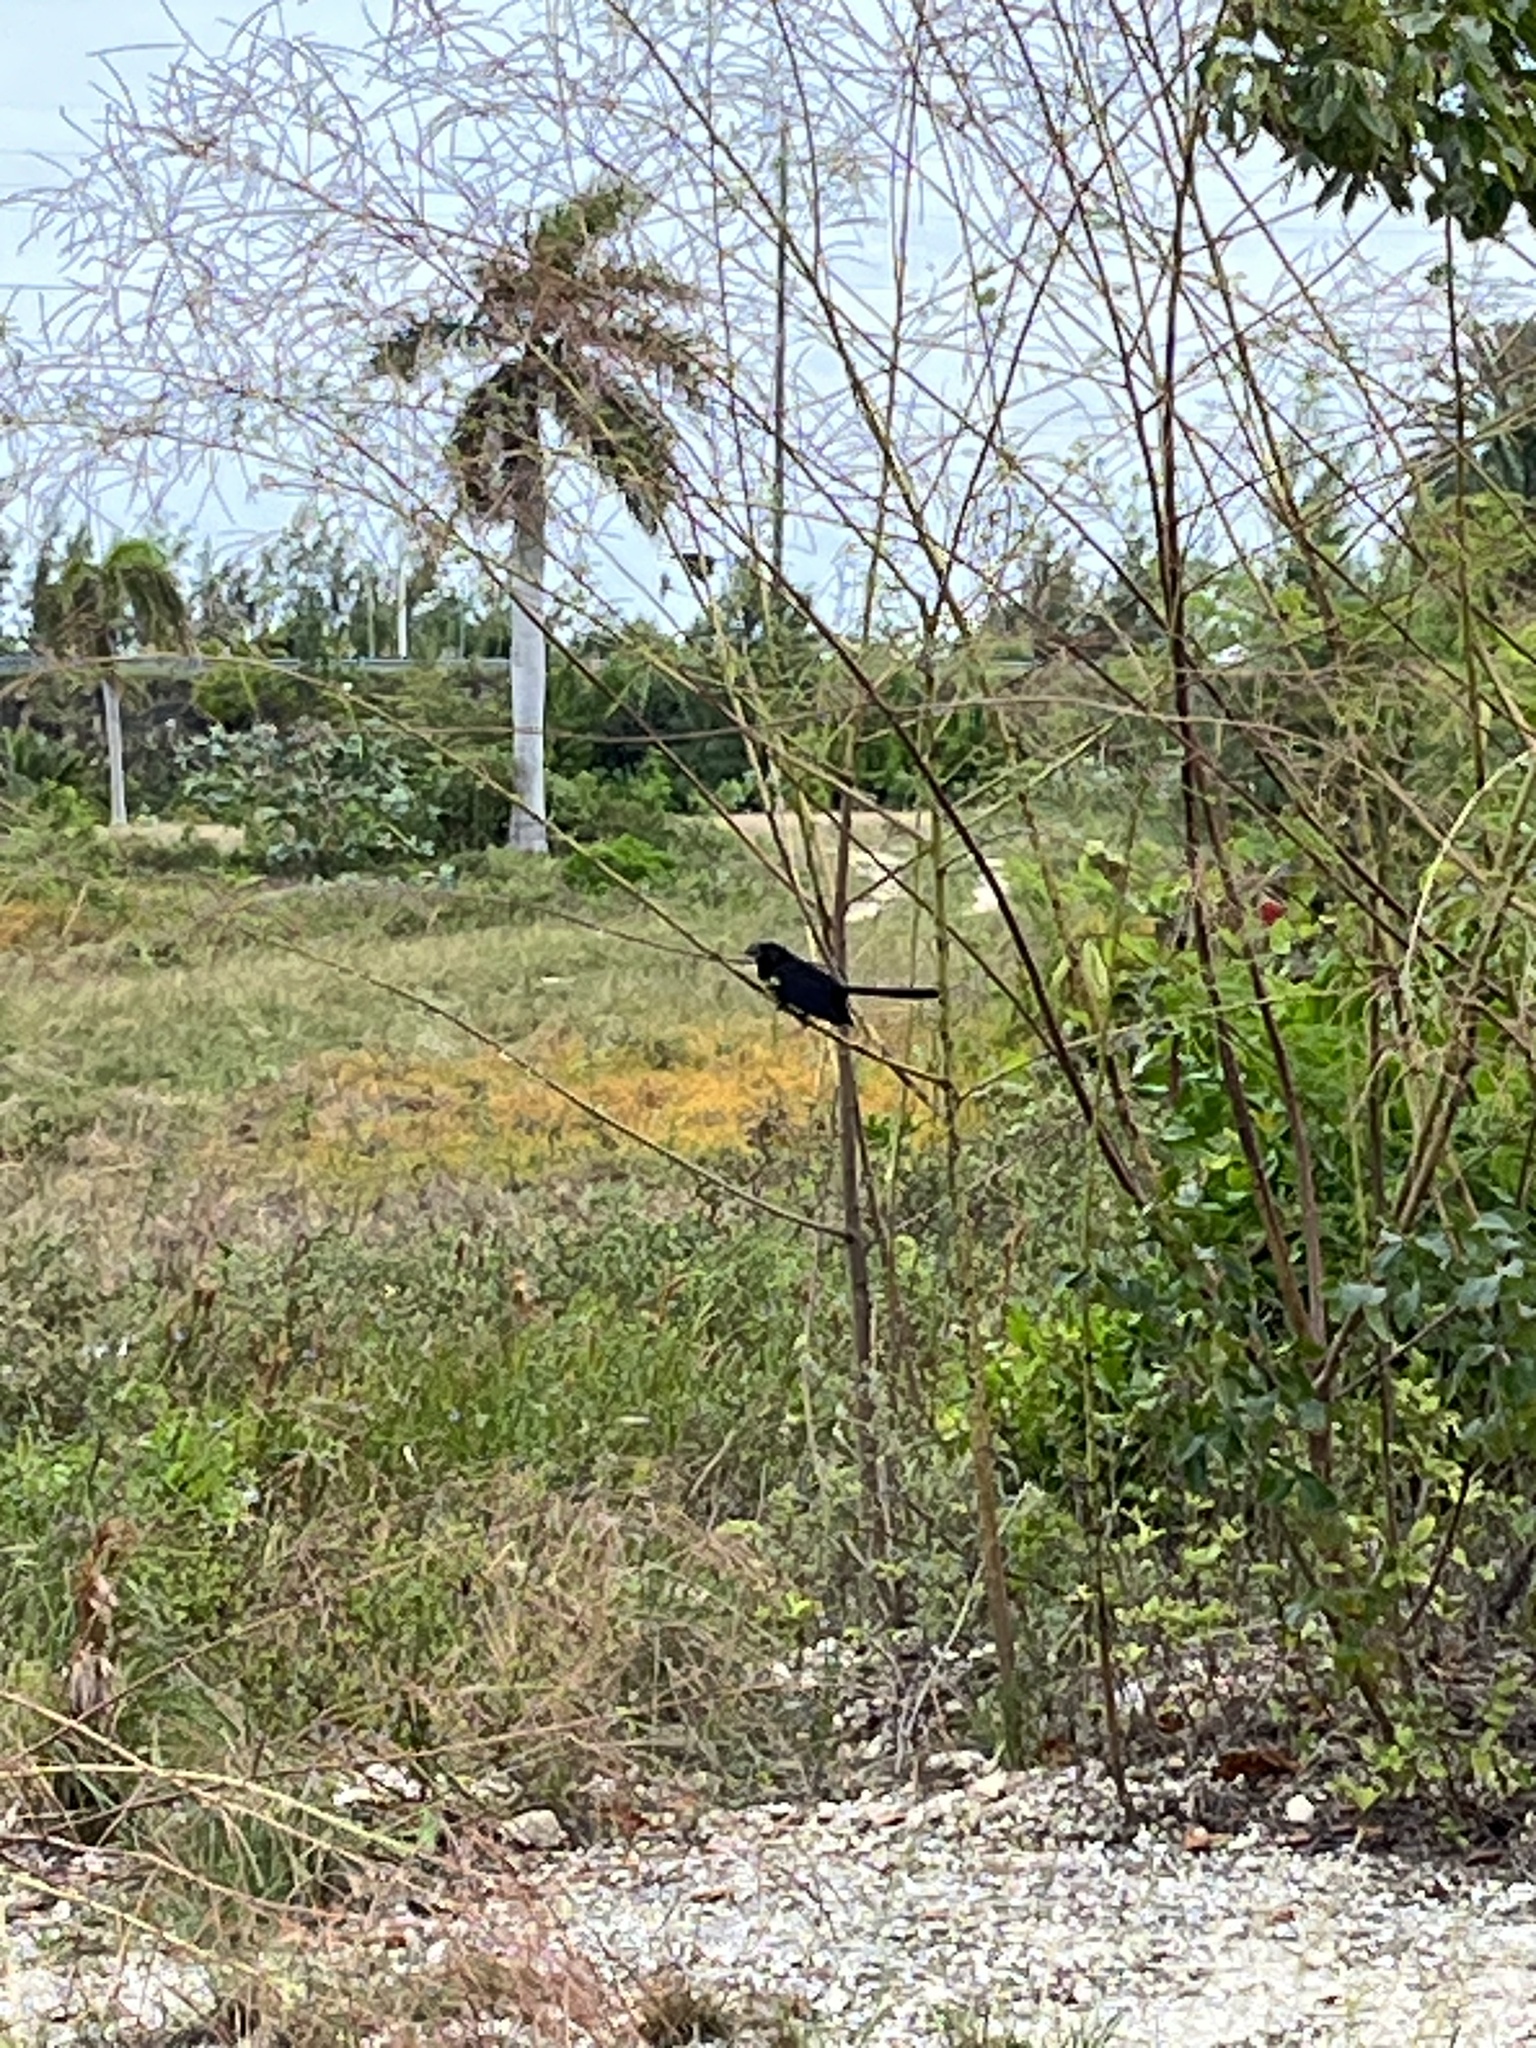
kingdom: Animalia
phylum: Chordata
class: Aves
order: Cuculiformes
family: Cuculidae
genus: Crotophaga
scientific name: Crotophaga ani
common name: Smooth-billed ani
